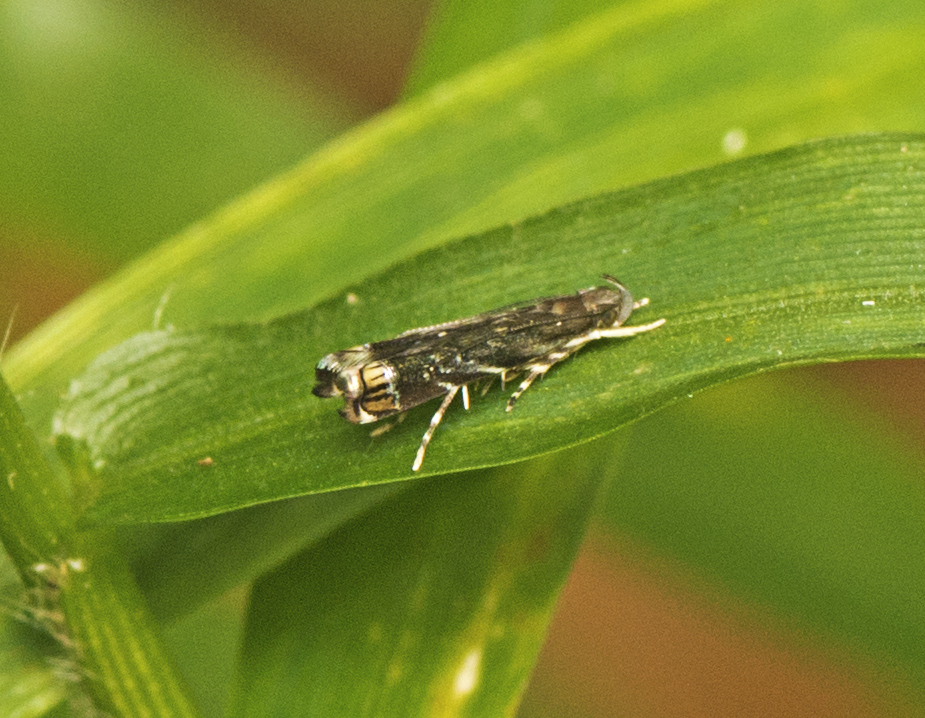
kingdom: Animalia
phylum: Arthropoda
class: Insecta
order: Lepidoptera
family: Gelechiidae
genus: Onebala
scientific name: Onebala
